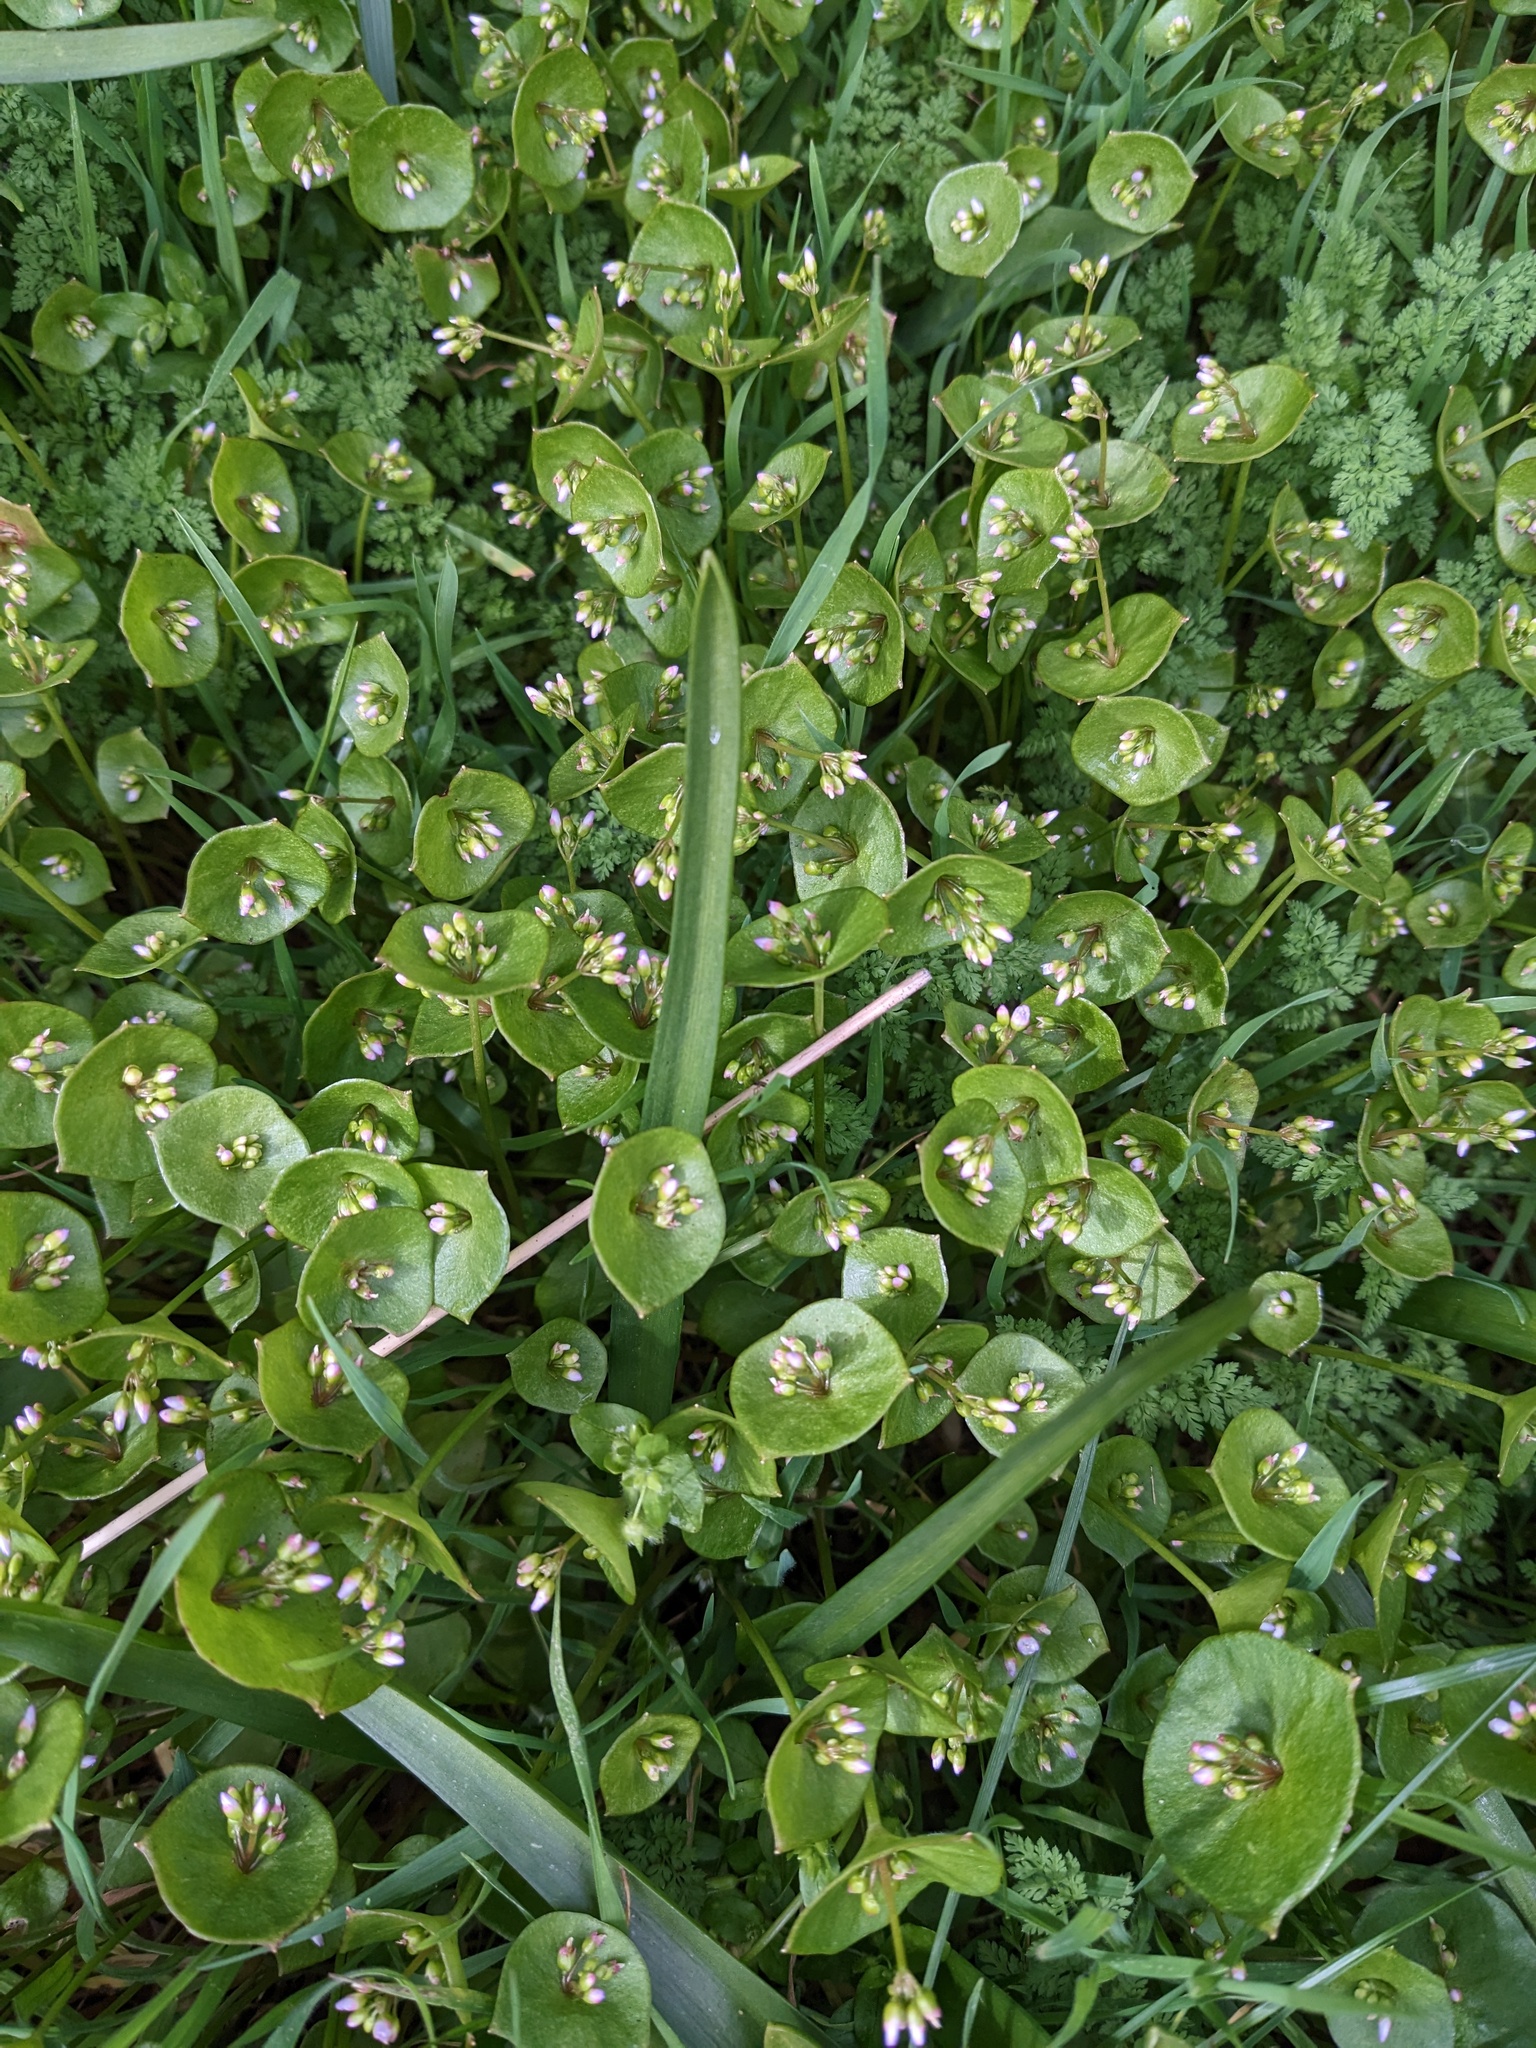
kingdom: Plantae
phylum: Tracheophyta
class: Magnoliopsida
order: Caryophyllales
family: Montiaceae
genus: Claytonia
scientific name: Claytonia perfoliata
